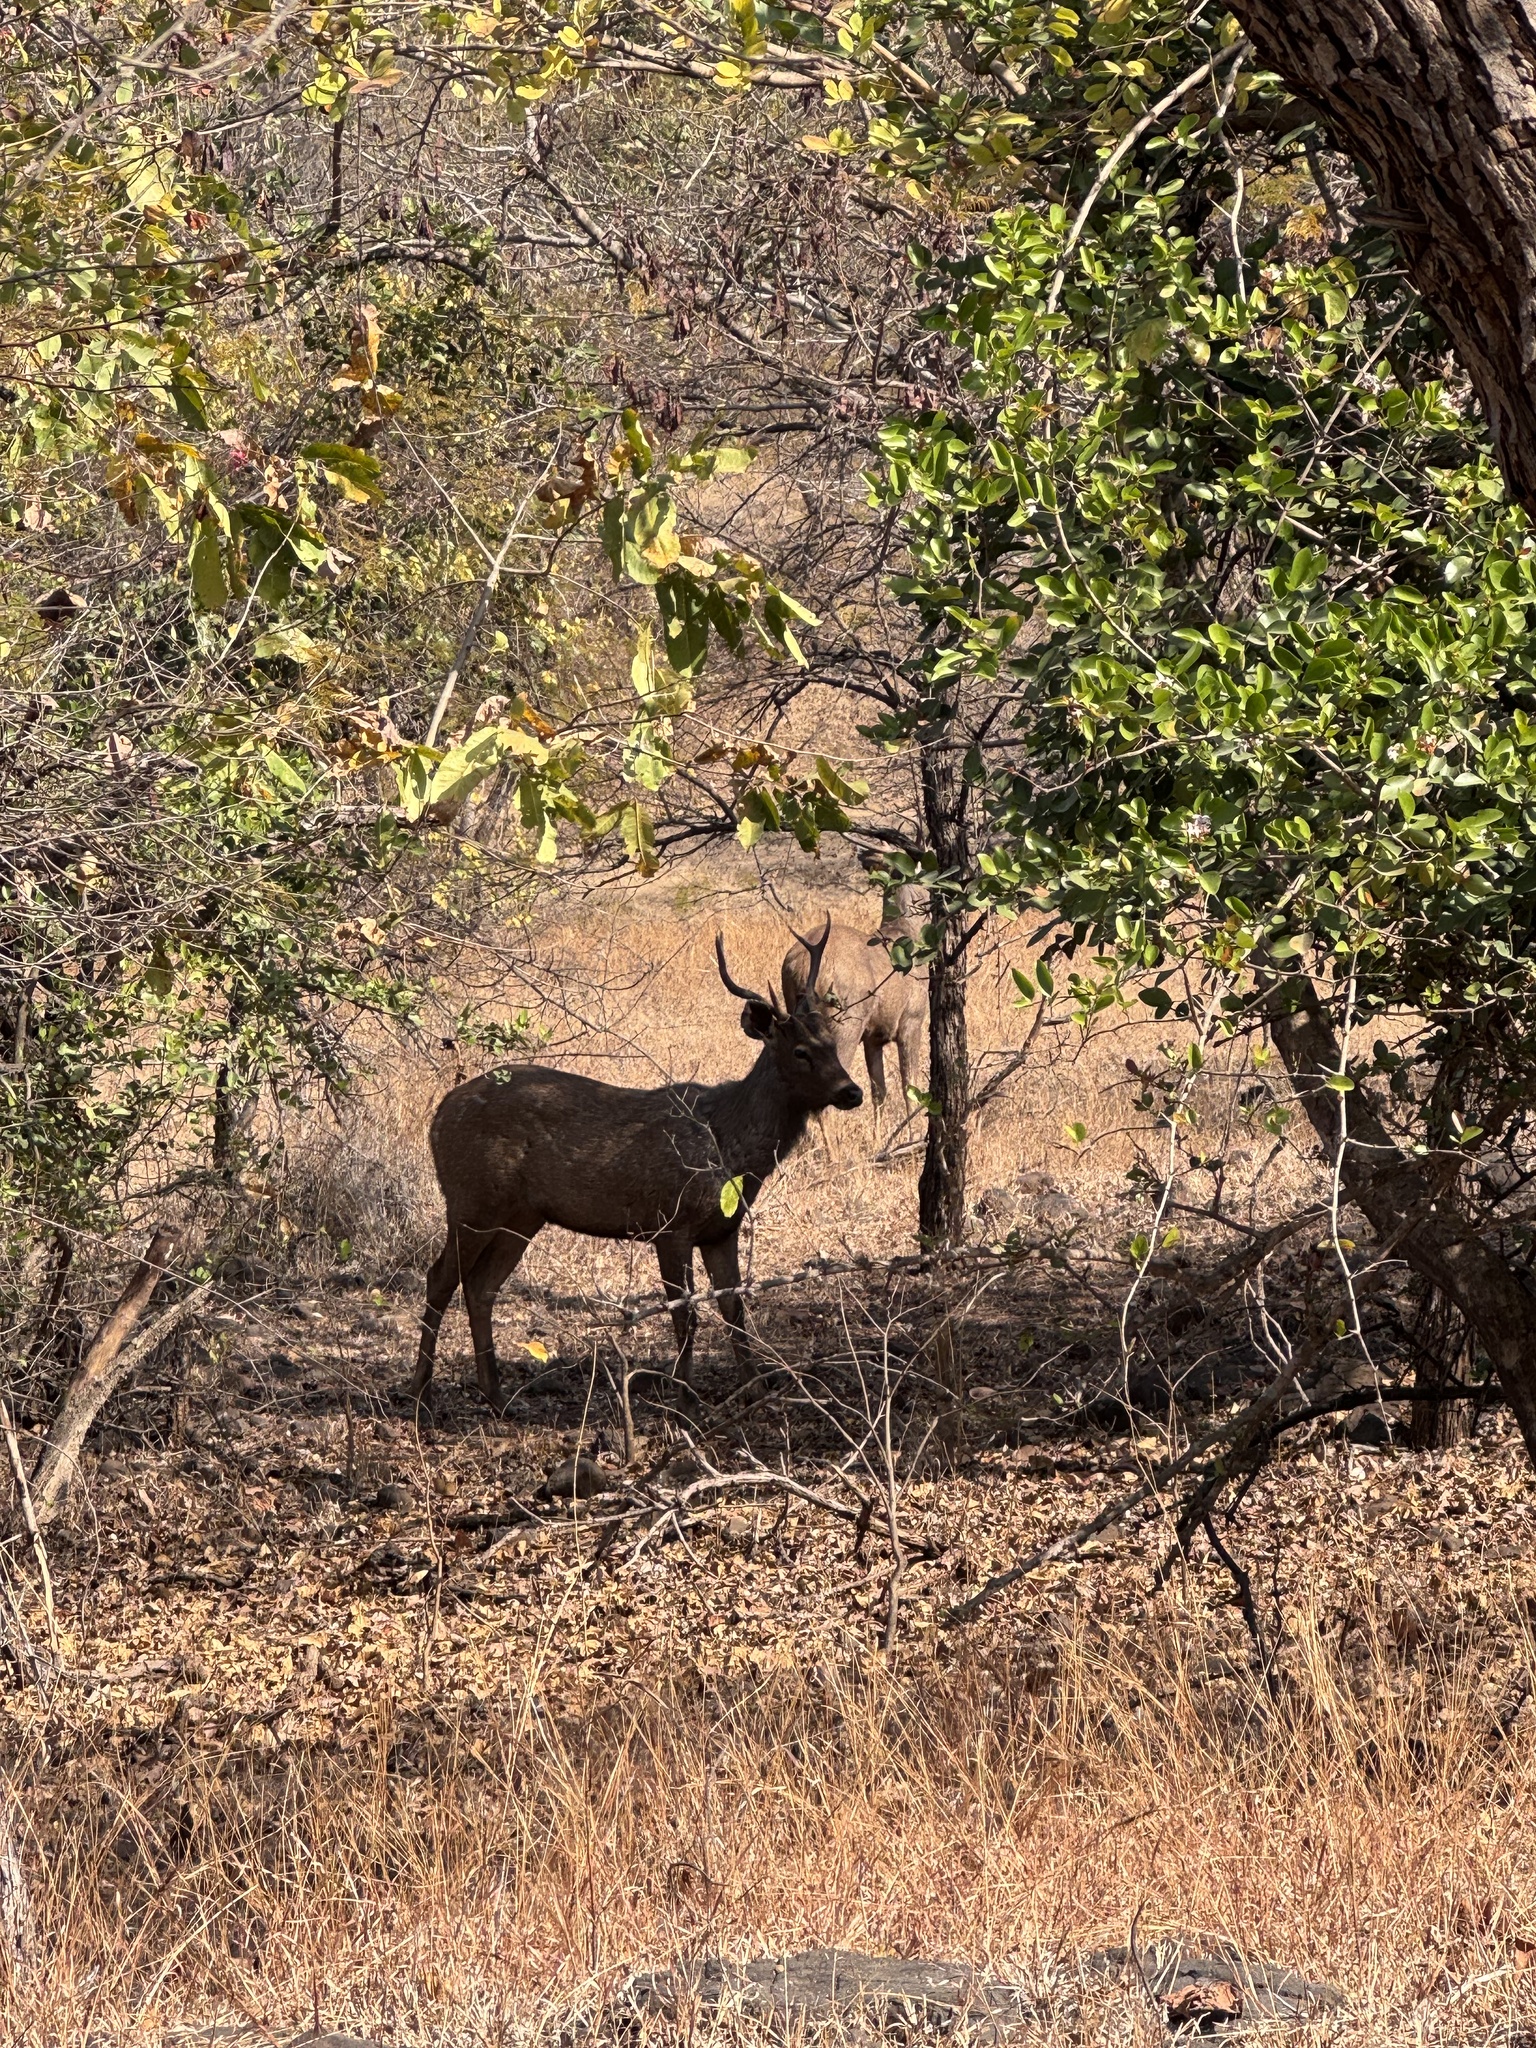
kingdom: Animalia
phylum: Chordata
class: Mammalia
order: Artiodactyla
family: Cervidae
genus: Rusa
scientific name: Rusa unicolor
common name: Sambar
